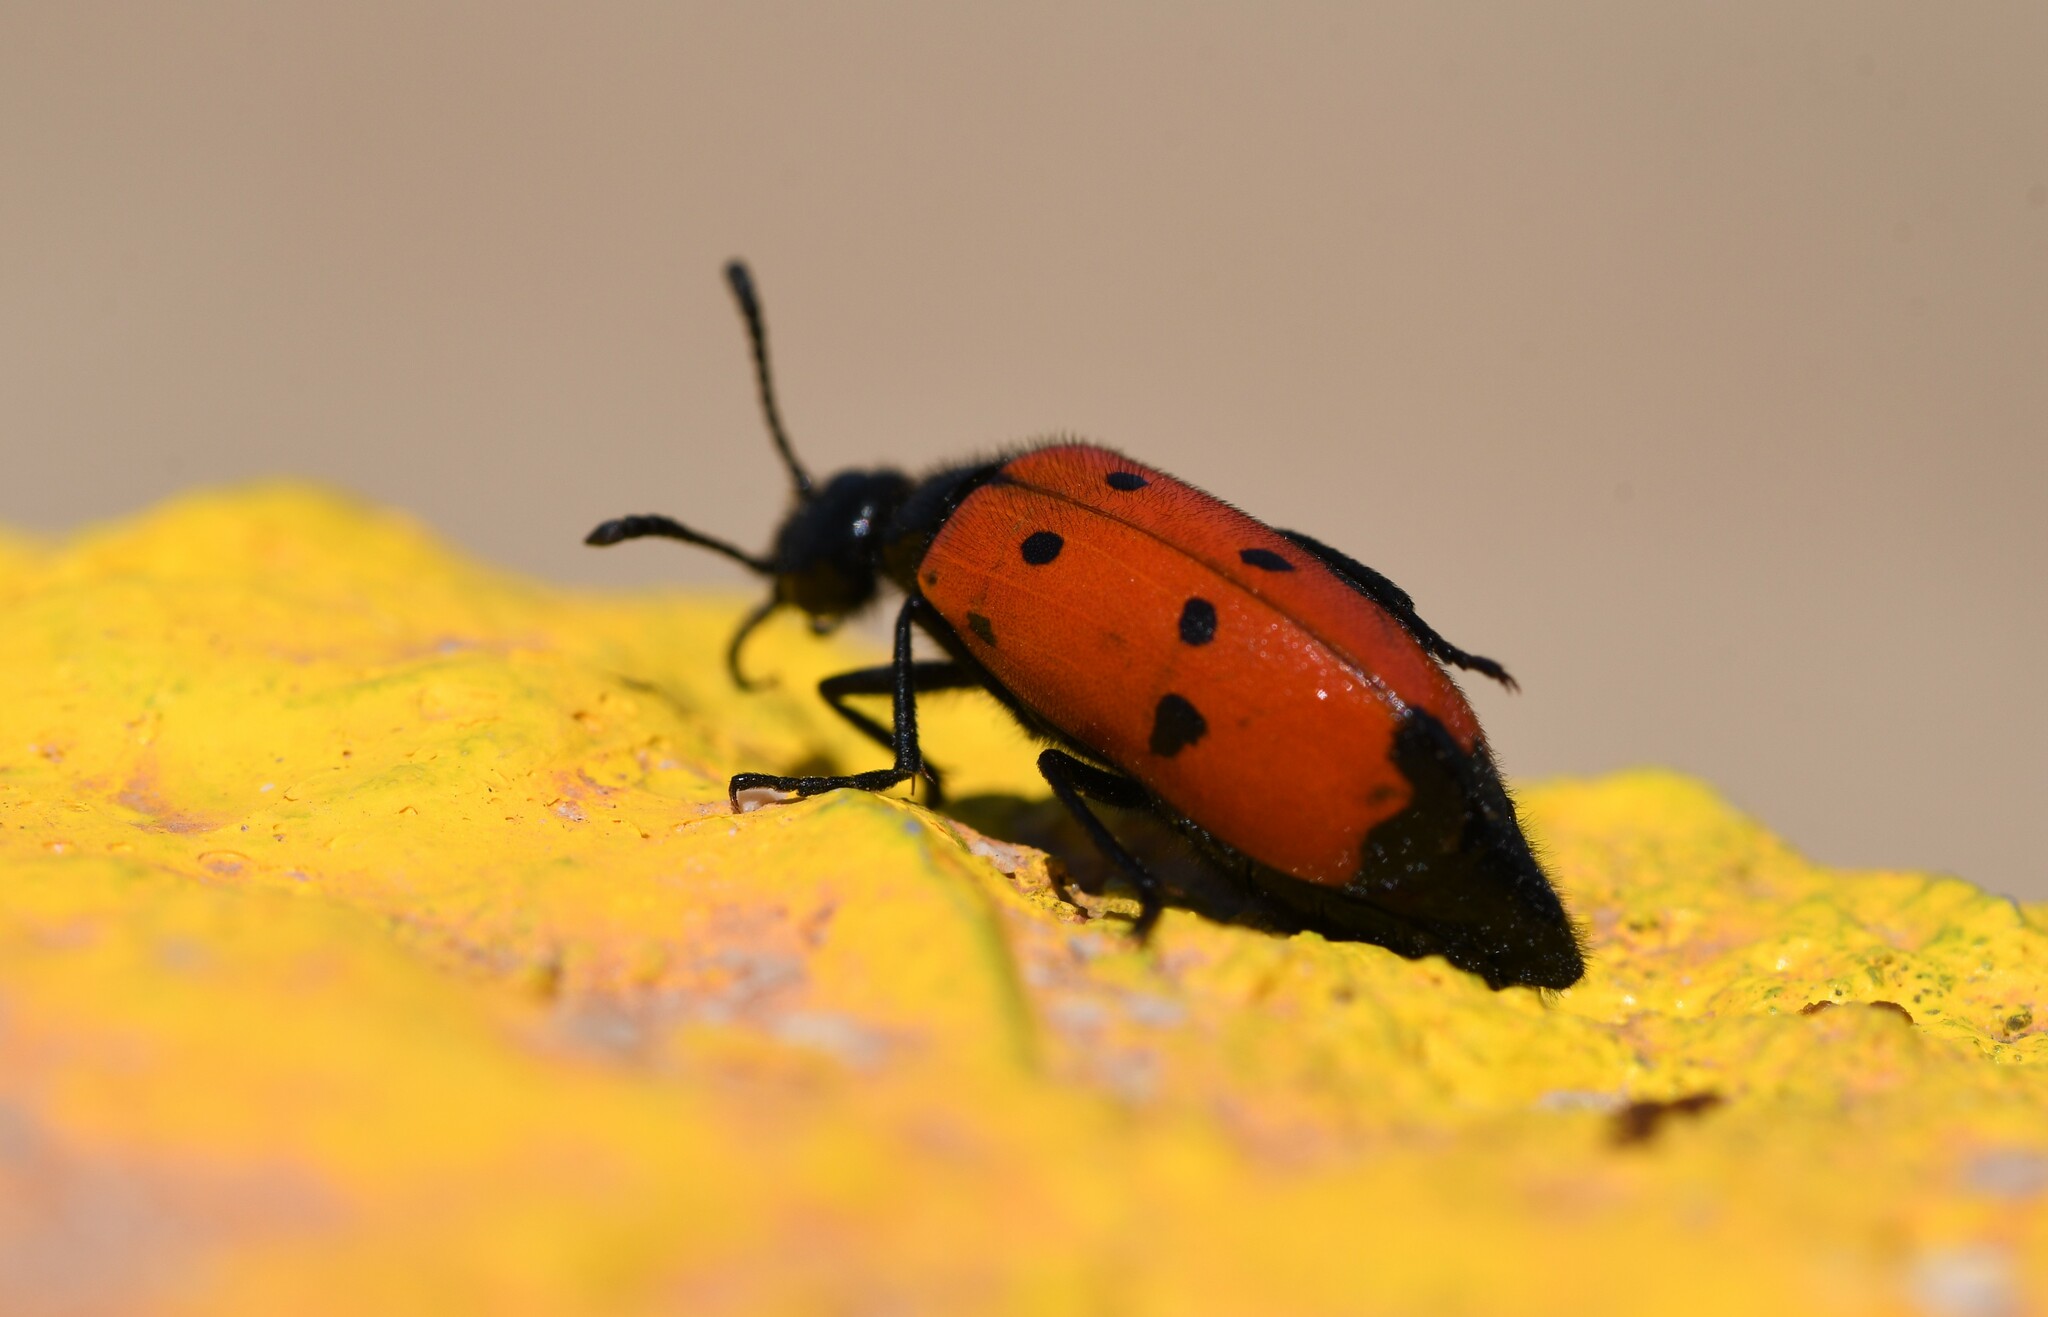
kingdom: Animalia
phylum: Arthropoda
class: Insecta
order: Coleoptera
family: Meloidae
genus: Mylabris
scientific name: Mylabris quadripunctata
